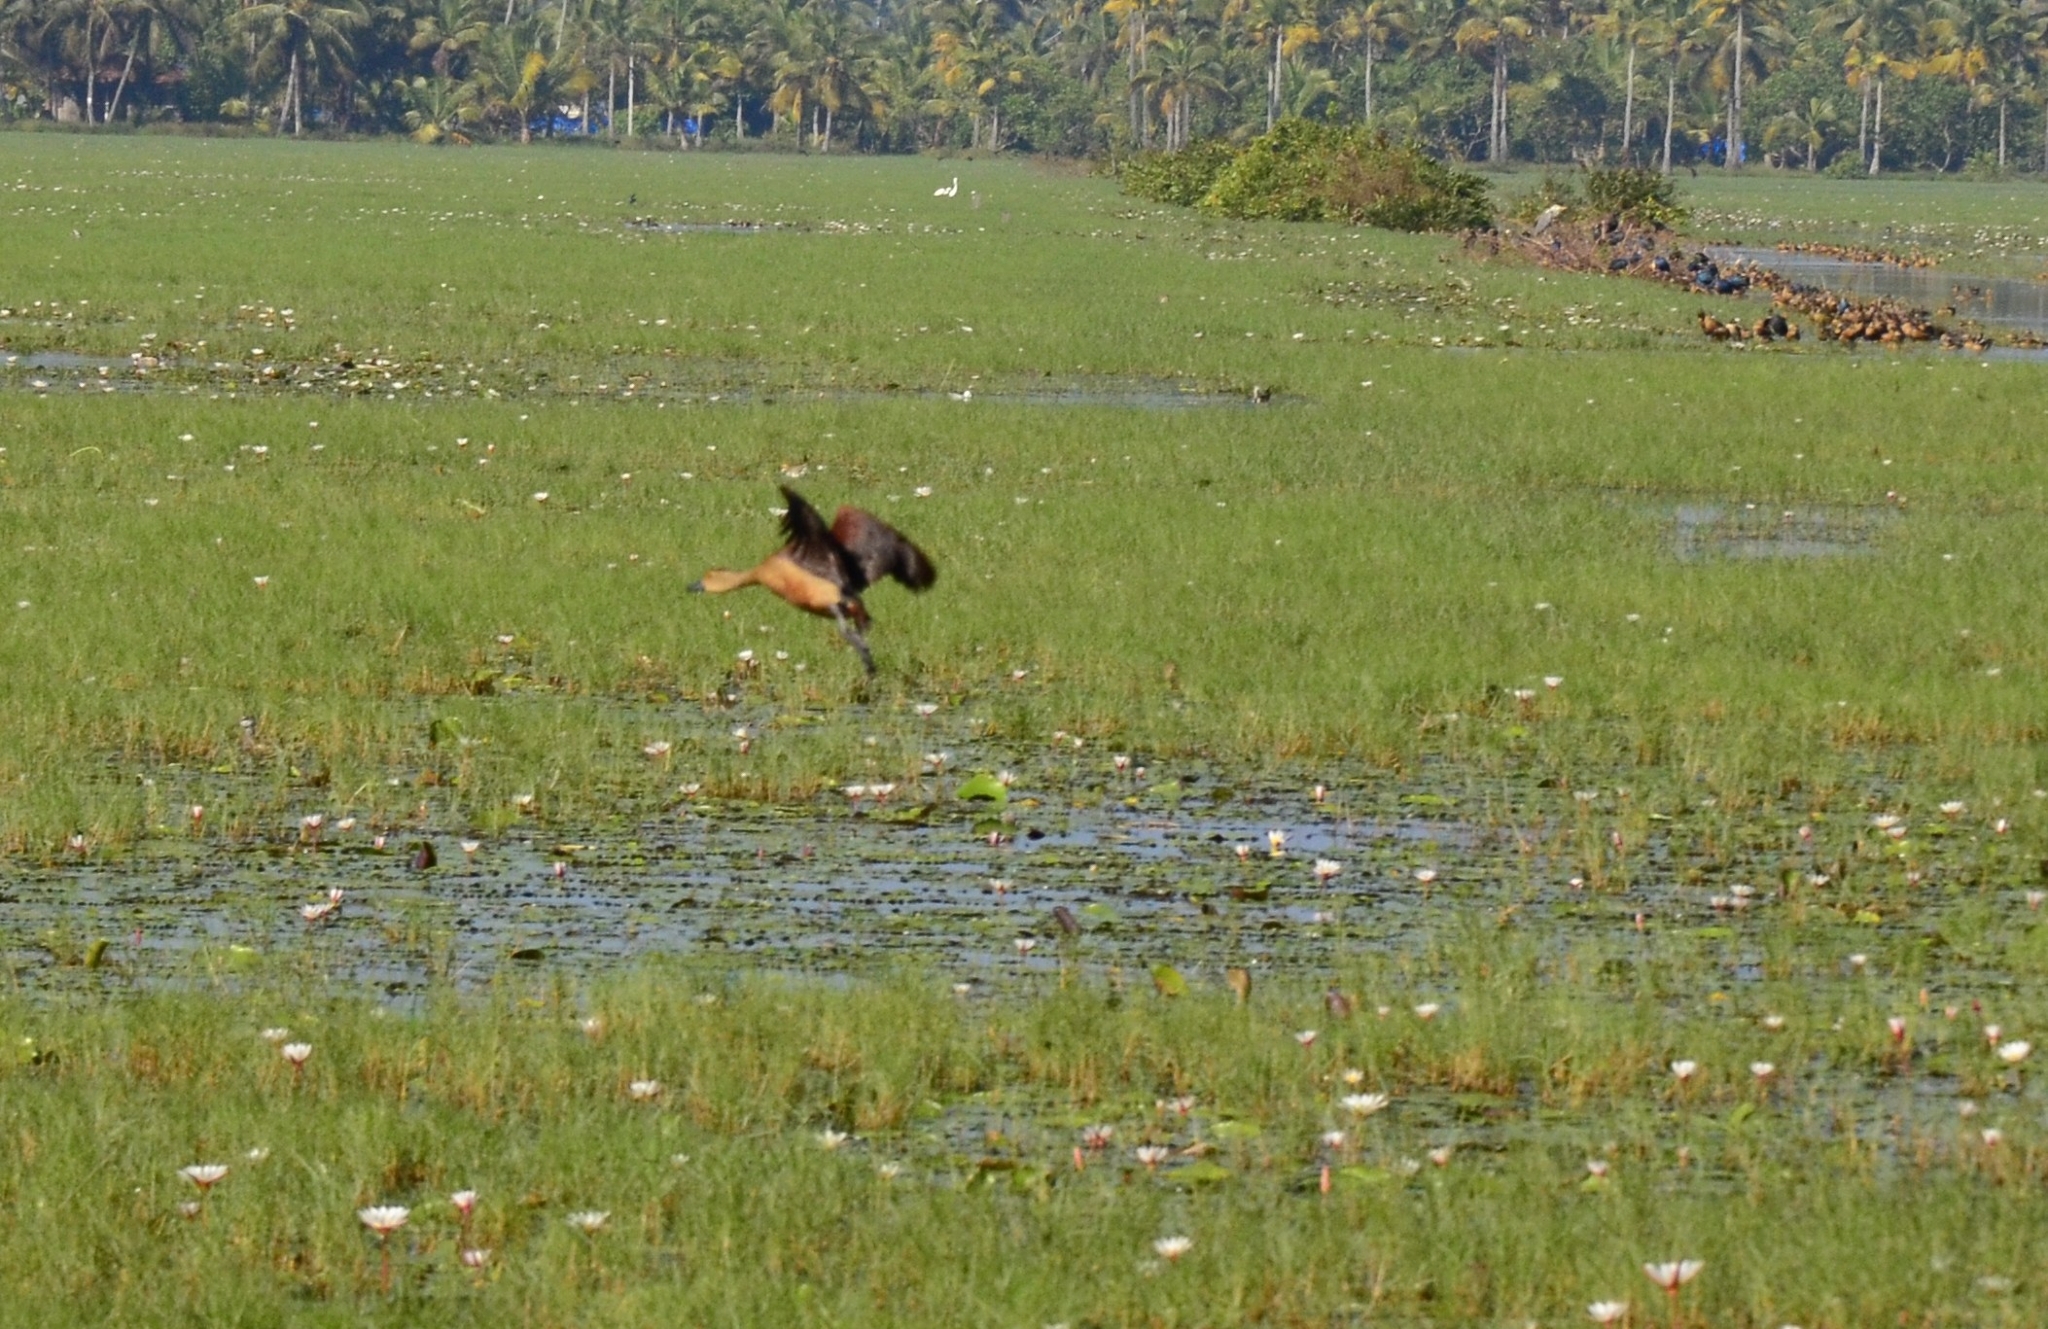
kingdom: Animalia
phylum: Chordata
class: Aves
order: Anseriformes
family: Anatidae
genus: Dendrocygna
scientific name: Dendrocygna javanica
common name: Lesser whistling-duck
